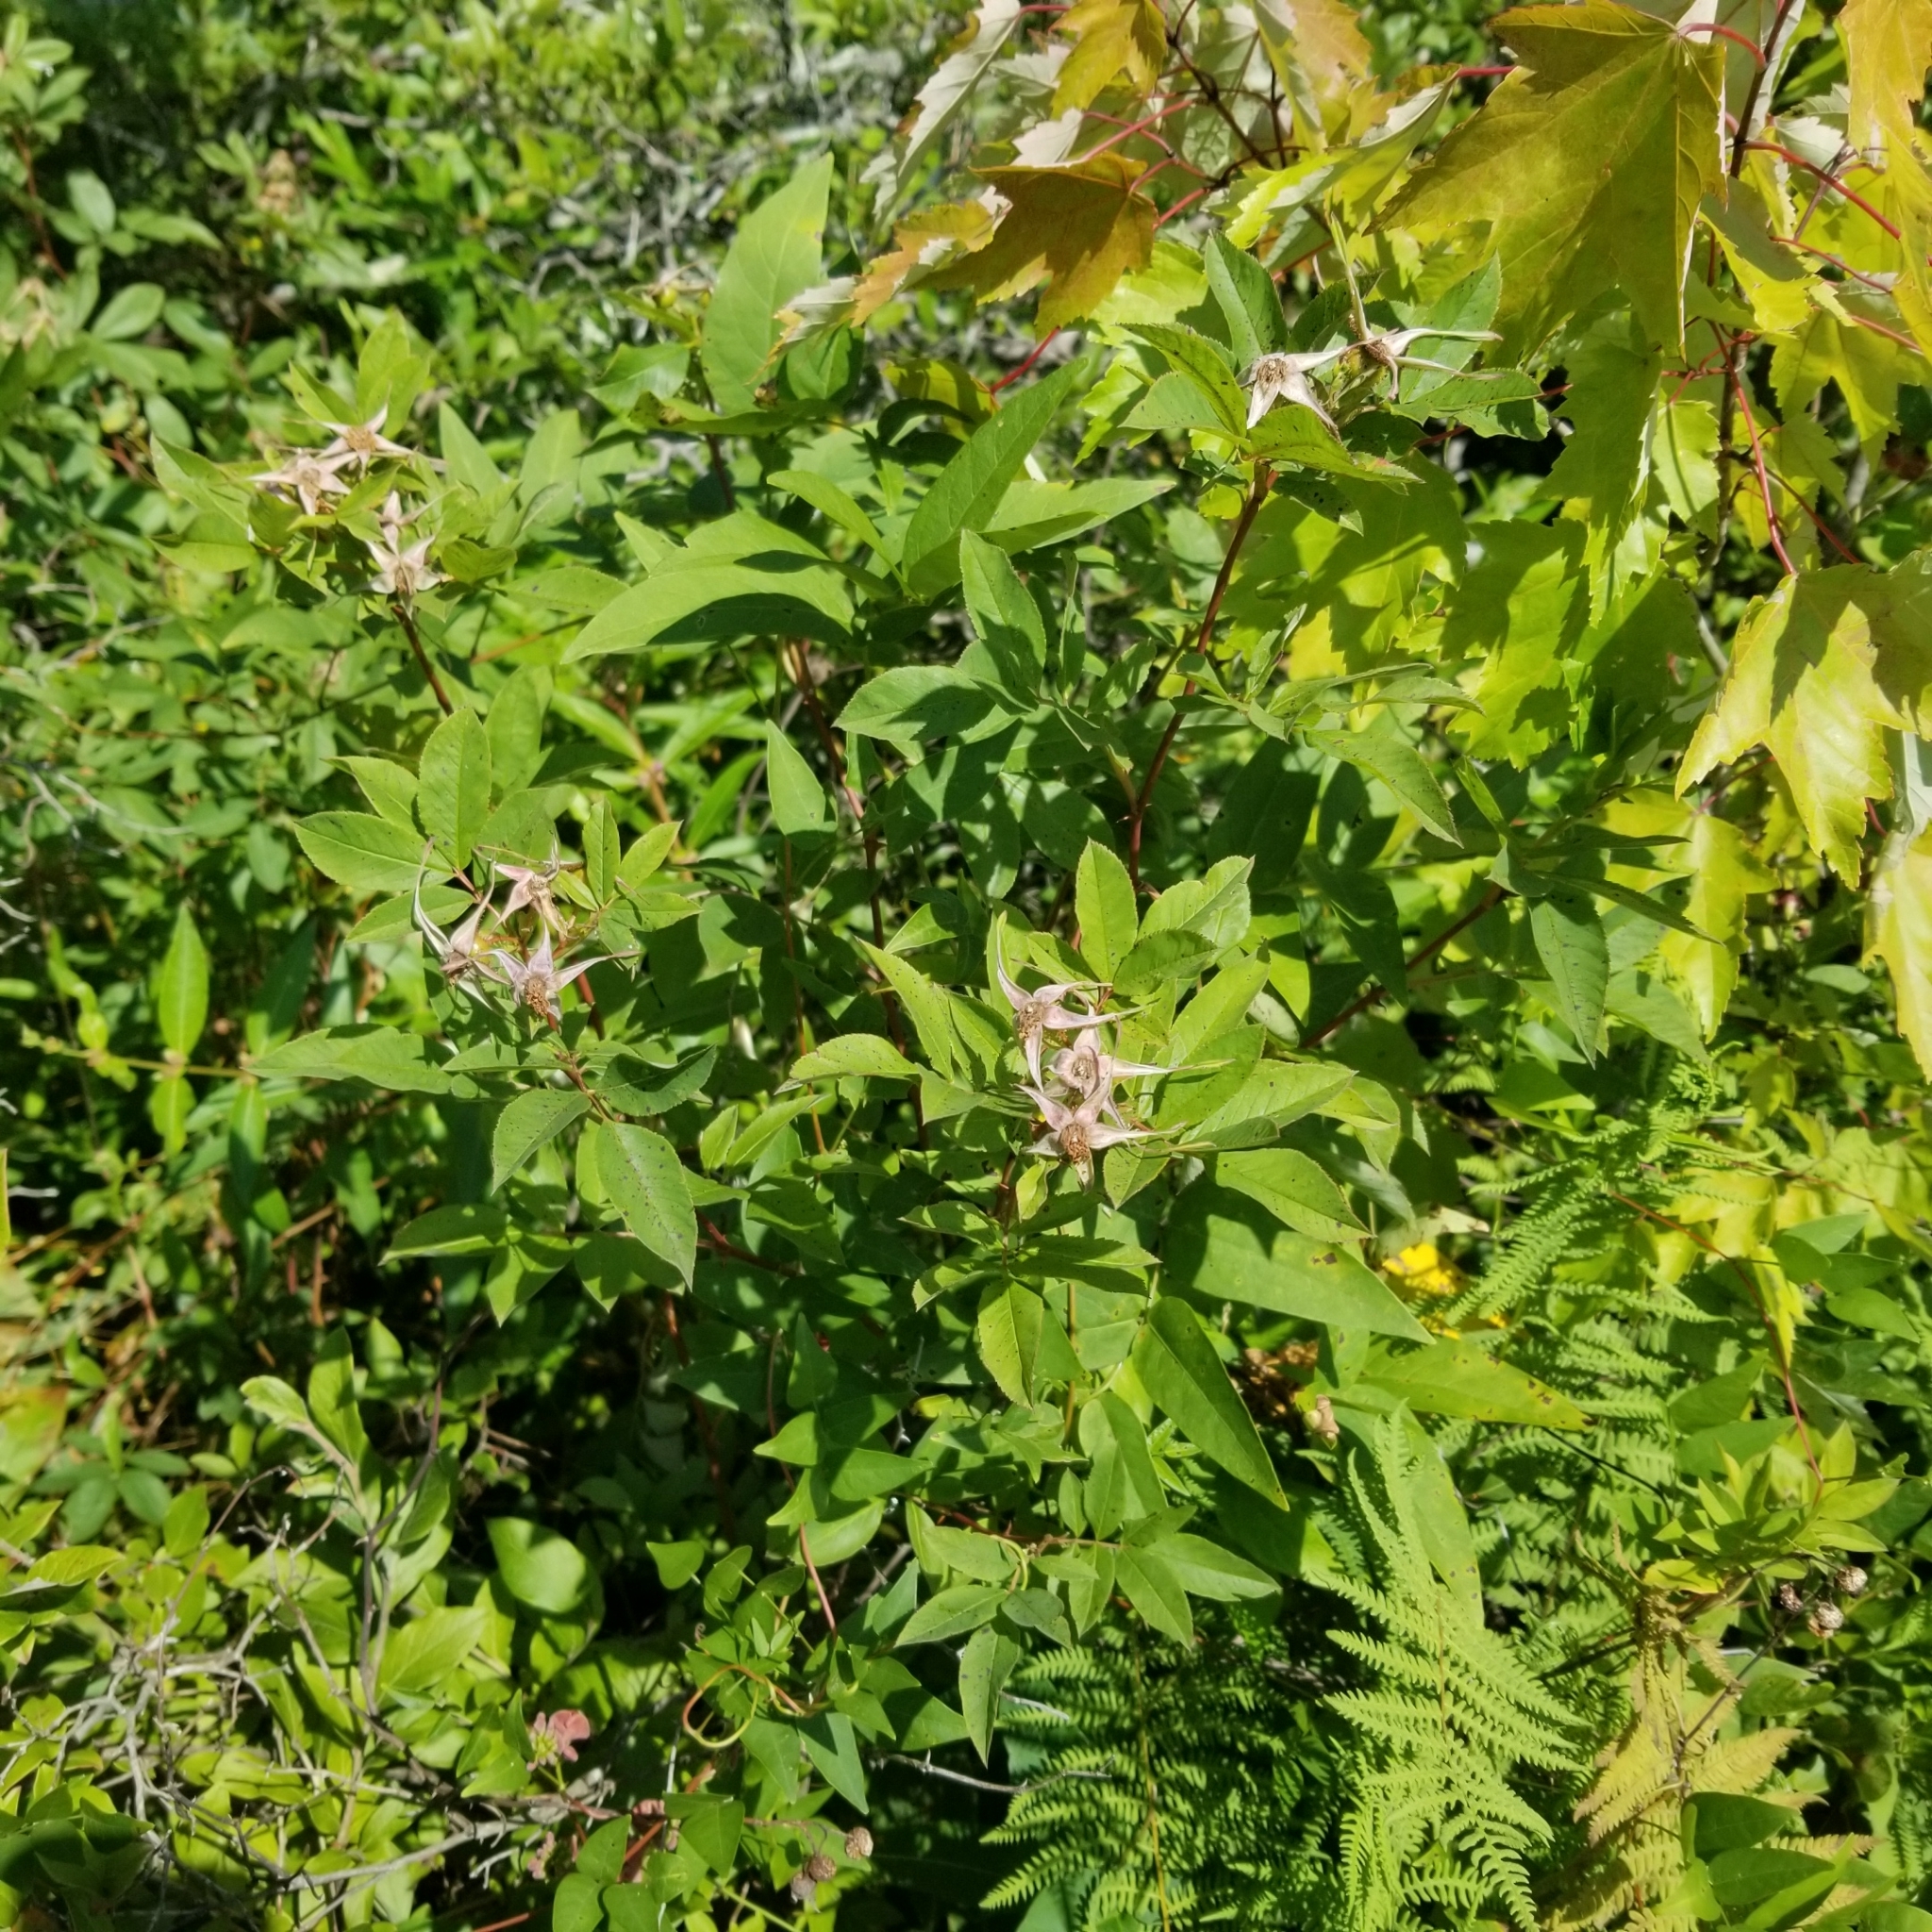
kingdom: Plantae
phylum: Tracheophyta
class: Magnoliopsida
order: Rosales
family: Rosaceae
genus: Rosa
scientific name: Rosa palustris
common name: Swamp rose
